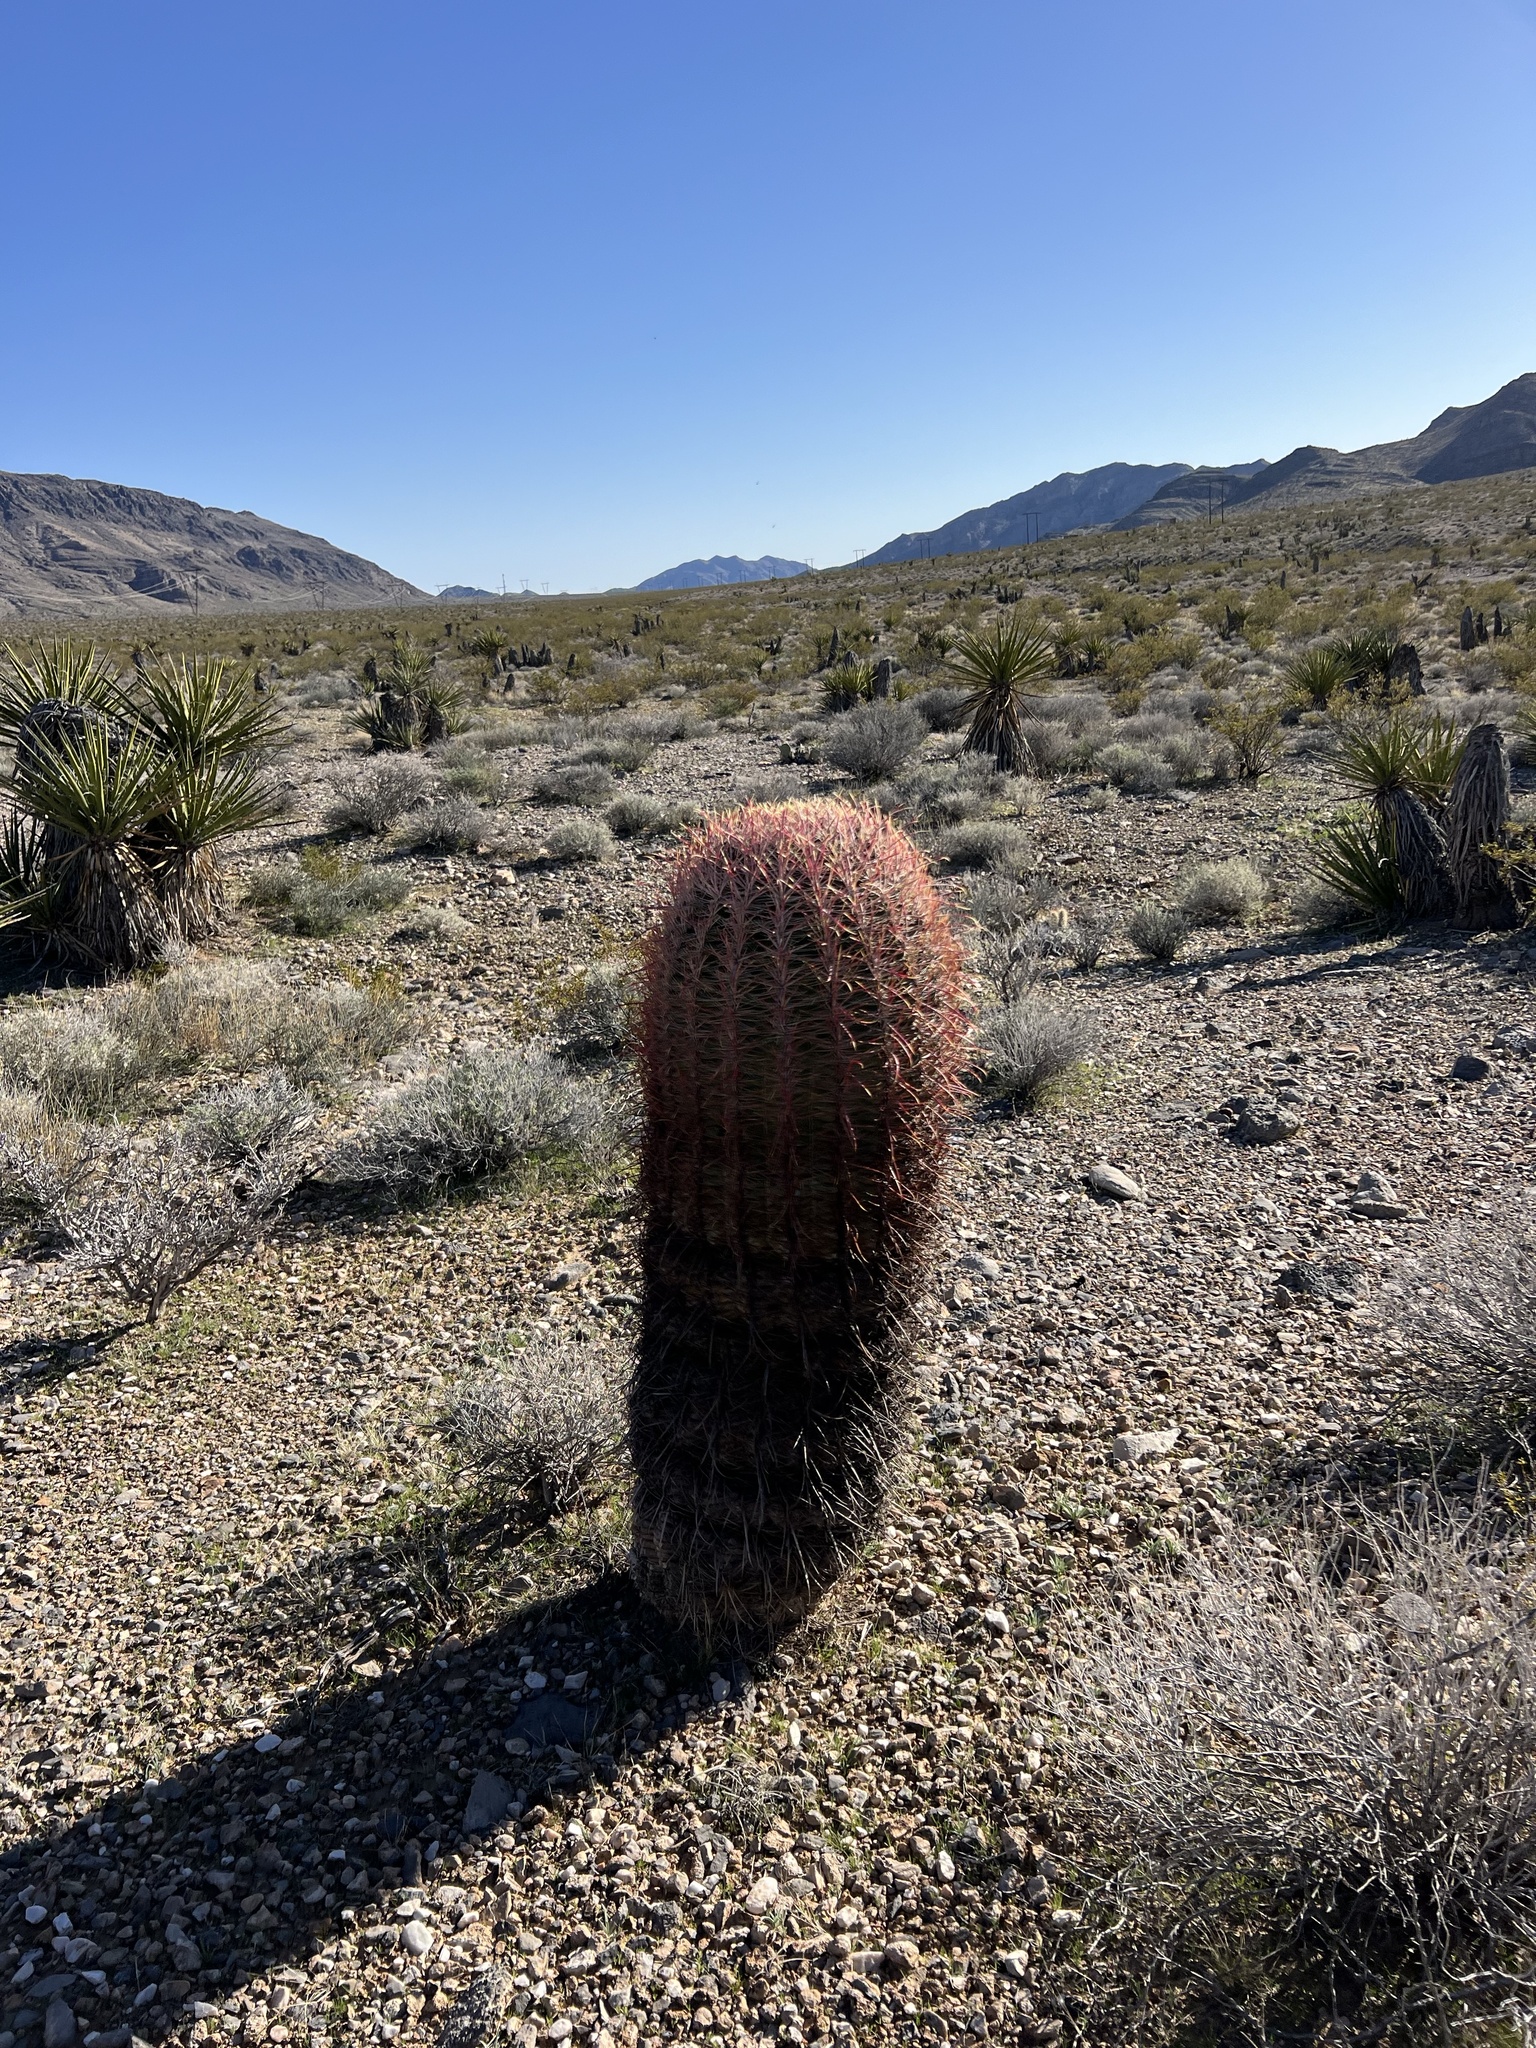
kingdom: Plantae
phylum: Tracheophyta
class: Magnoliopsida
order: Caryophyllales
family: Cactaceae
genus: Ferocactus
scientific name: Ferocactus cylindraceus
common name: California barrel cactus
